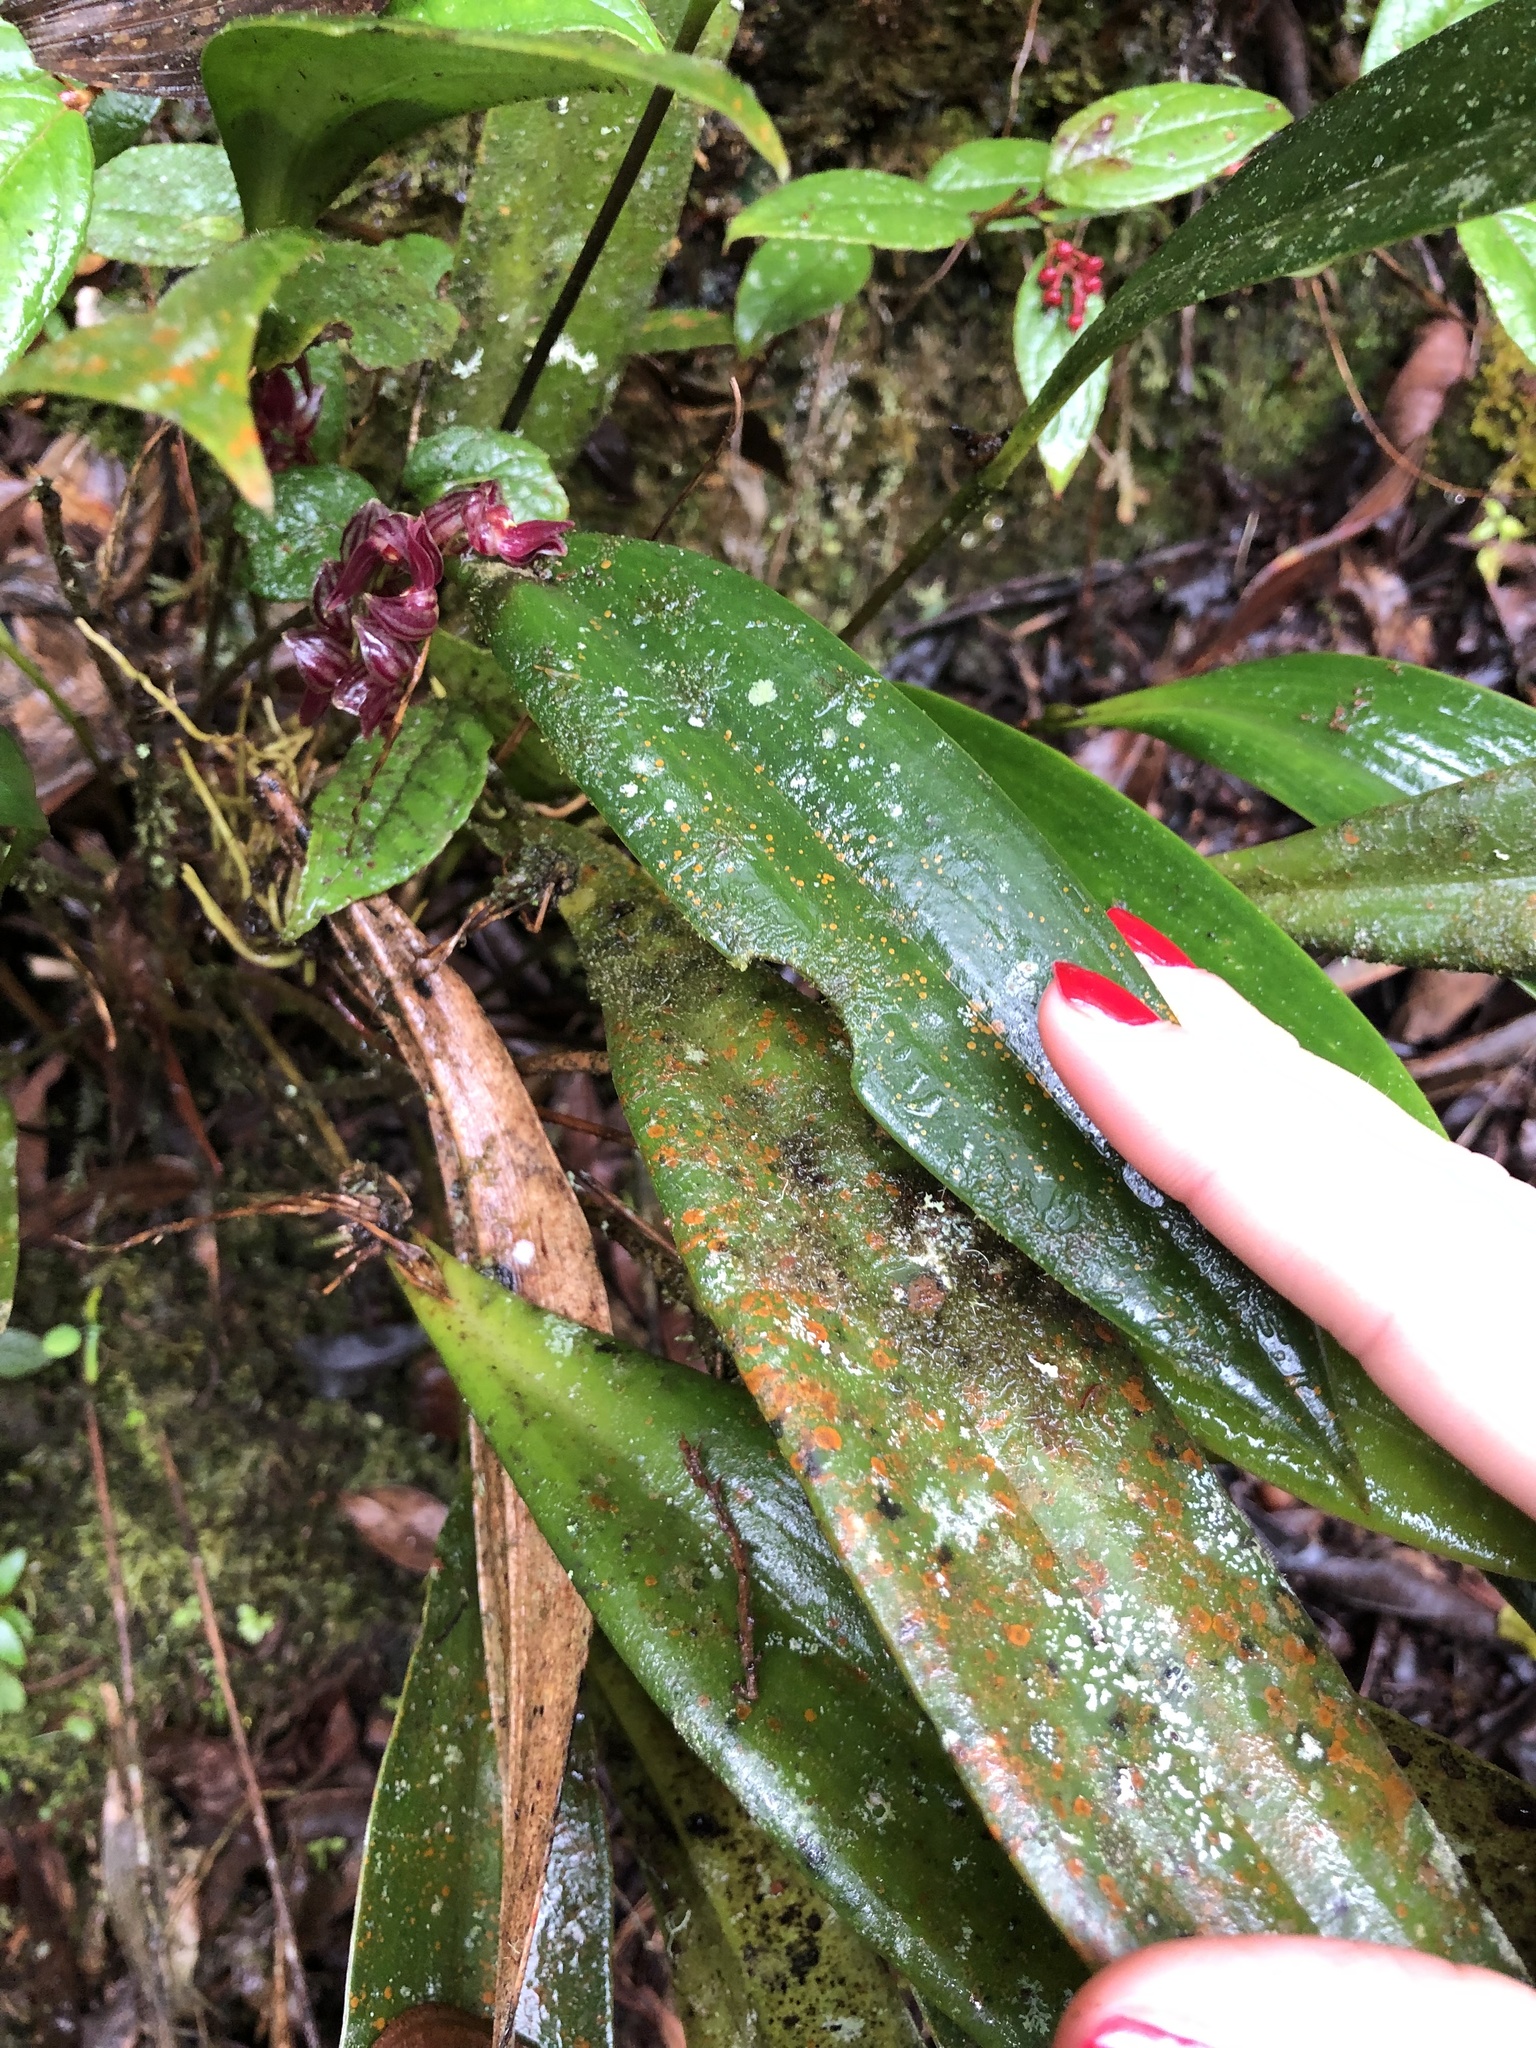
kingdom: Plantae
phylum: Tracheophyta
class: Liliopsida
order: Asparagales
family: Orchidaceae
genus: Pleurothallis
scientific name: Pleurothallis lindenii
